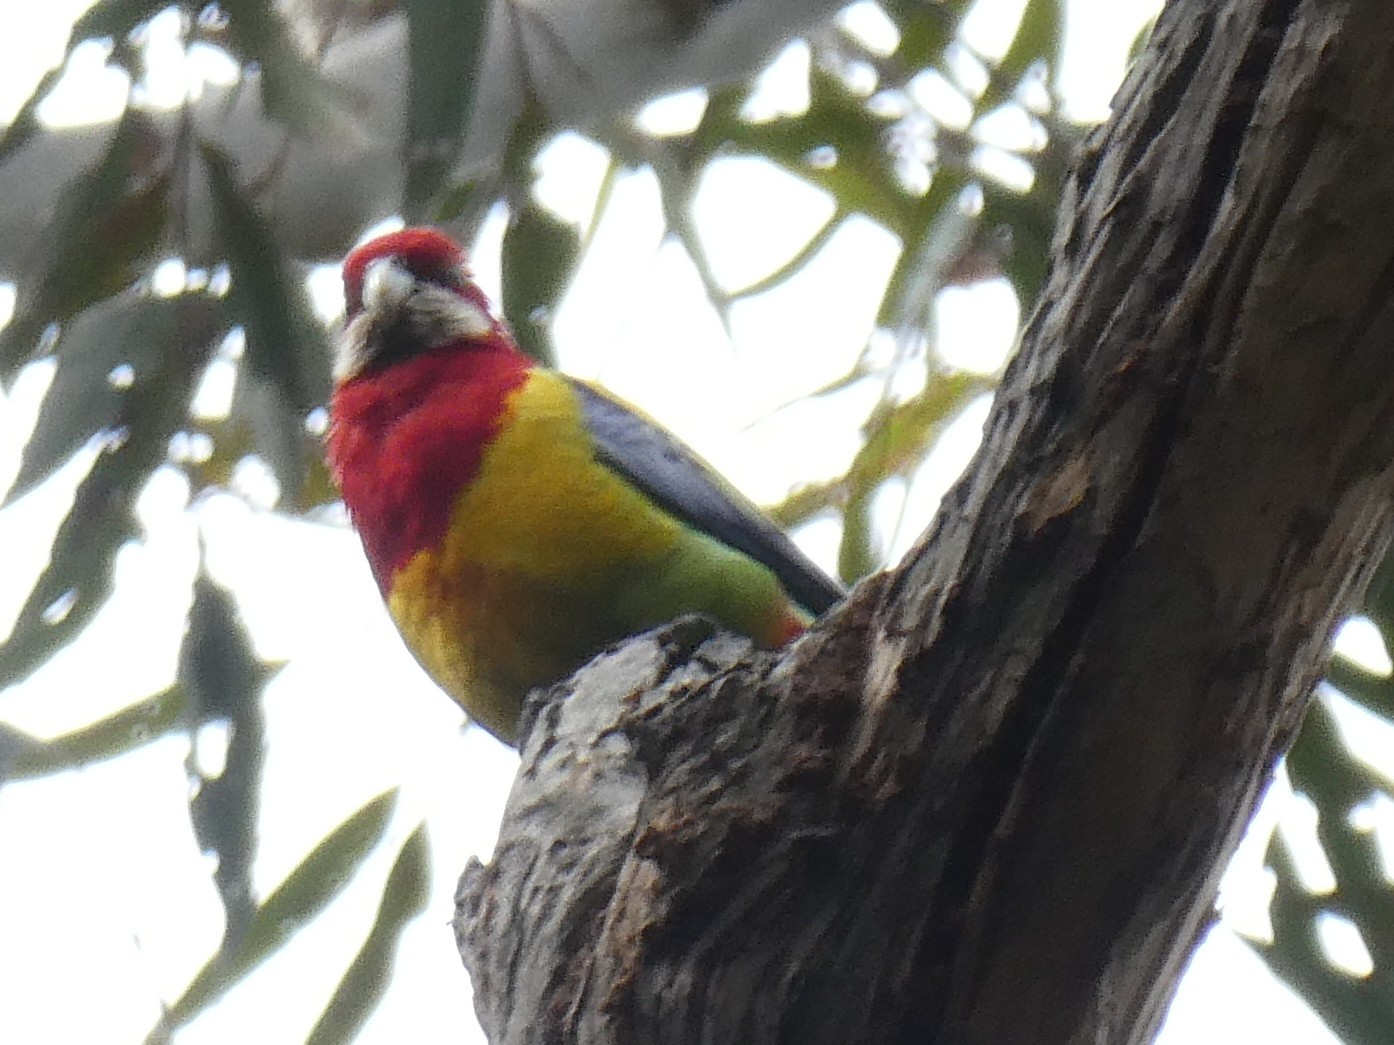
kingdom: Animalia
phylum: Chordata
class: Aves
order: Psittaciformes
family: Psittacidae
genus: Platycercus
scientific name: Platycercus eximius
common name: Eastern rosella
